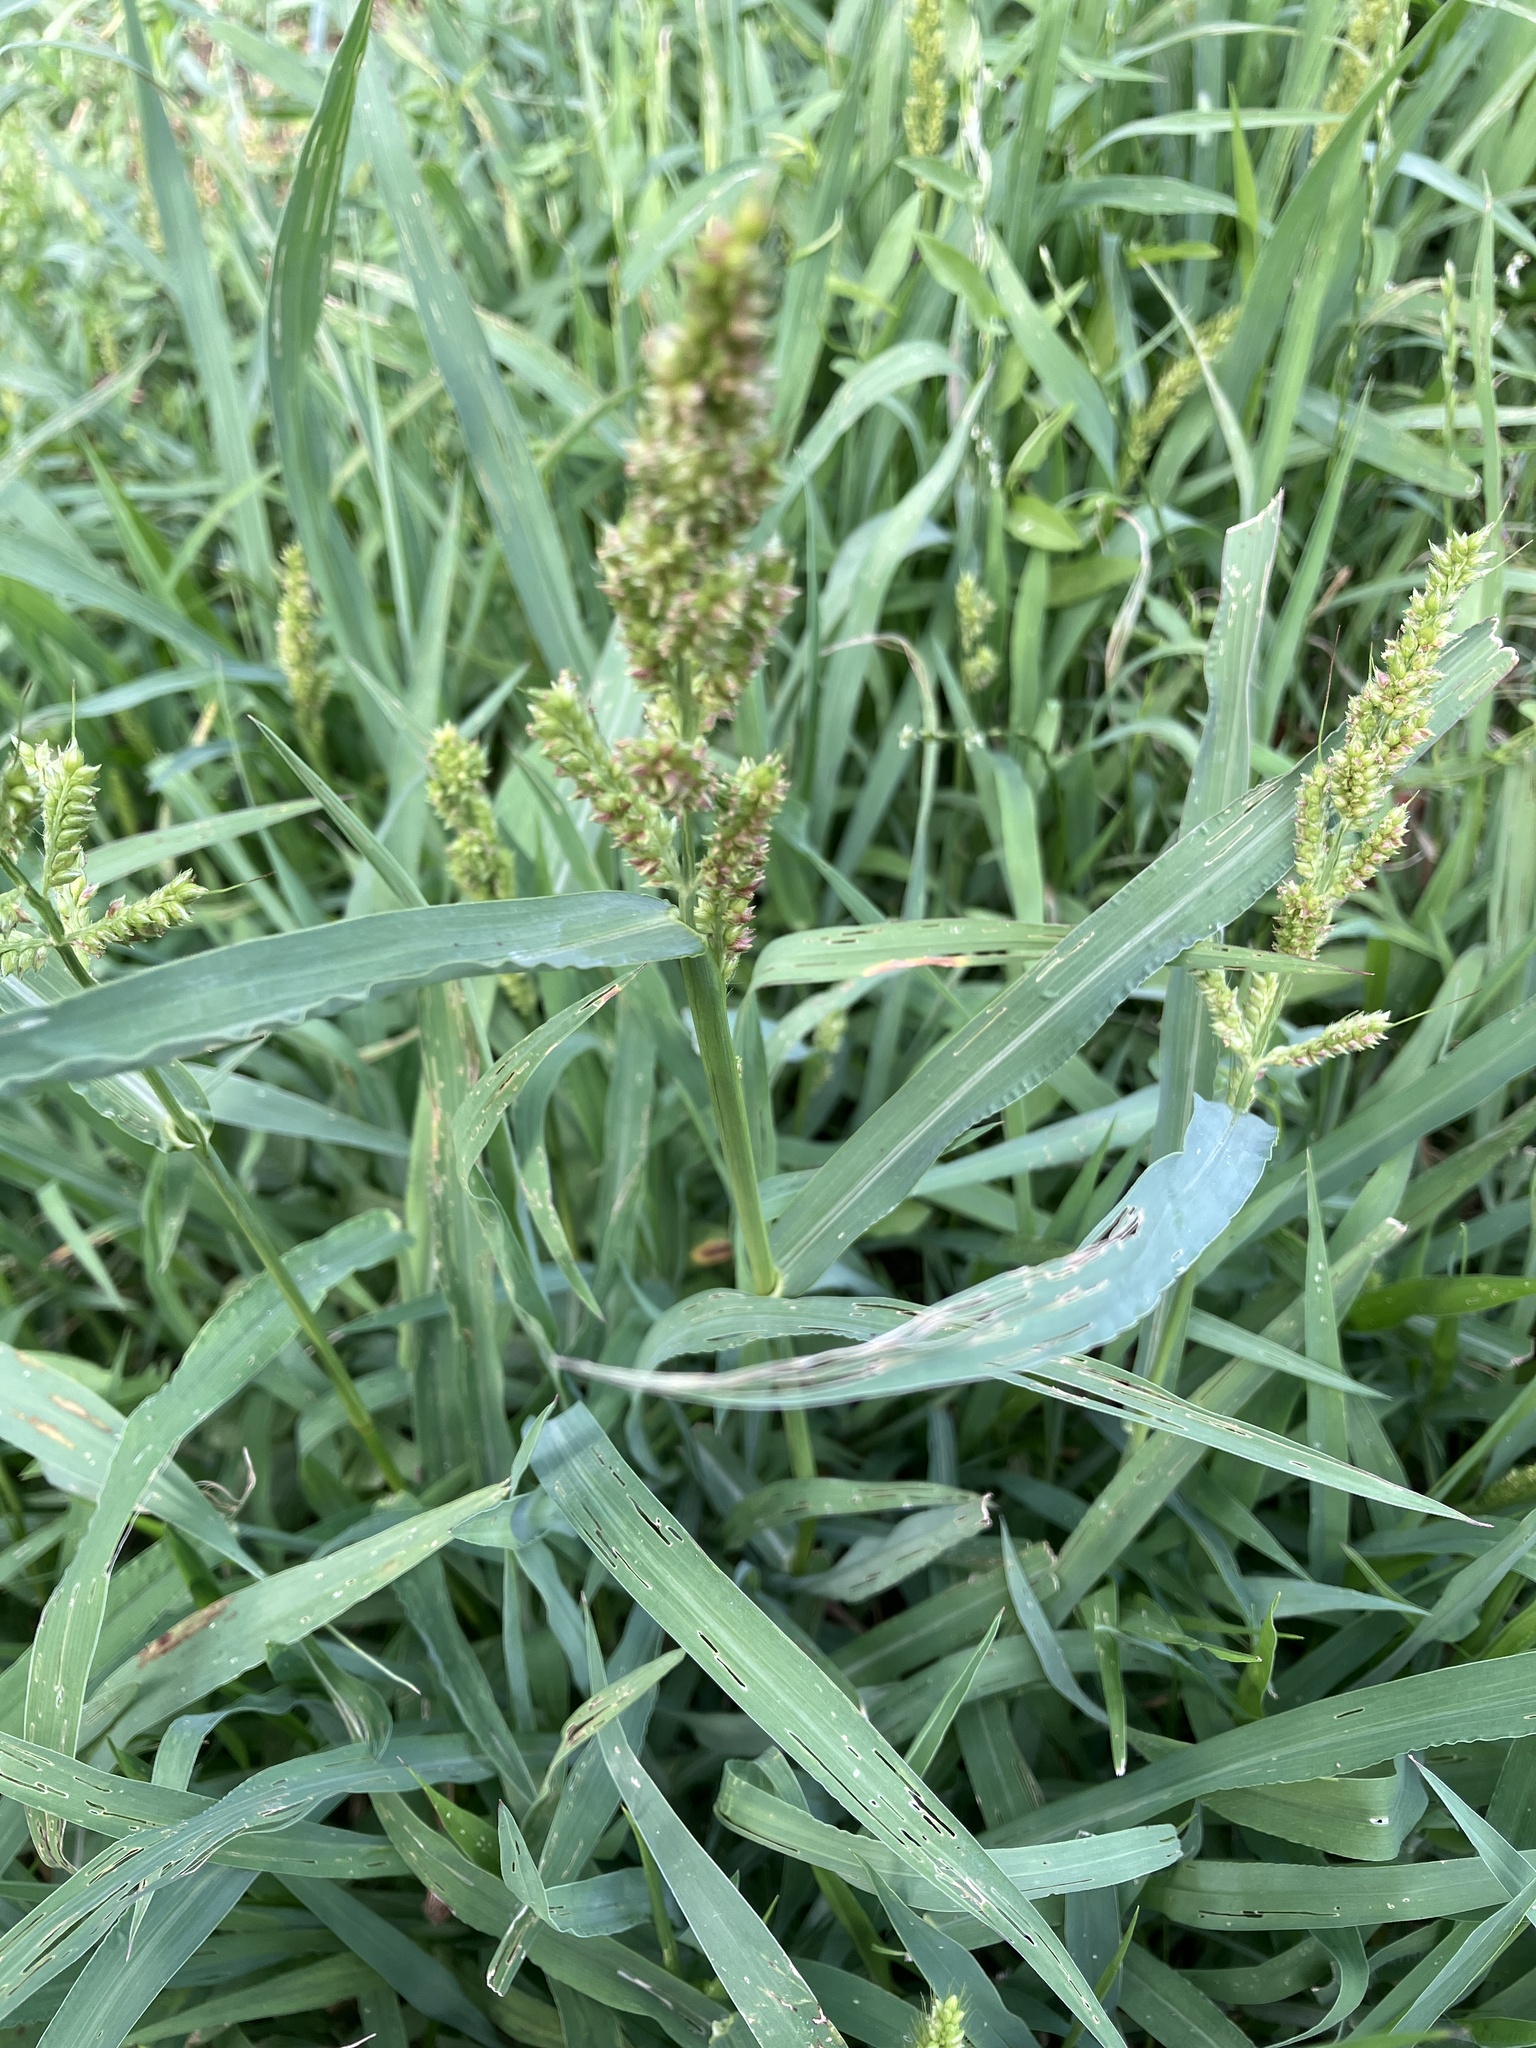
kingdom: Plantae
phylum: Tracheophyta
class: Liliopsida
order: Poales
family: Poaceae
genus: Echinochloa
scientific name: Echinochloa crus-galli
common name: Cockspur
